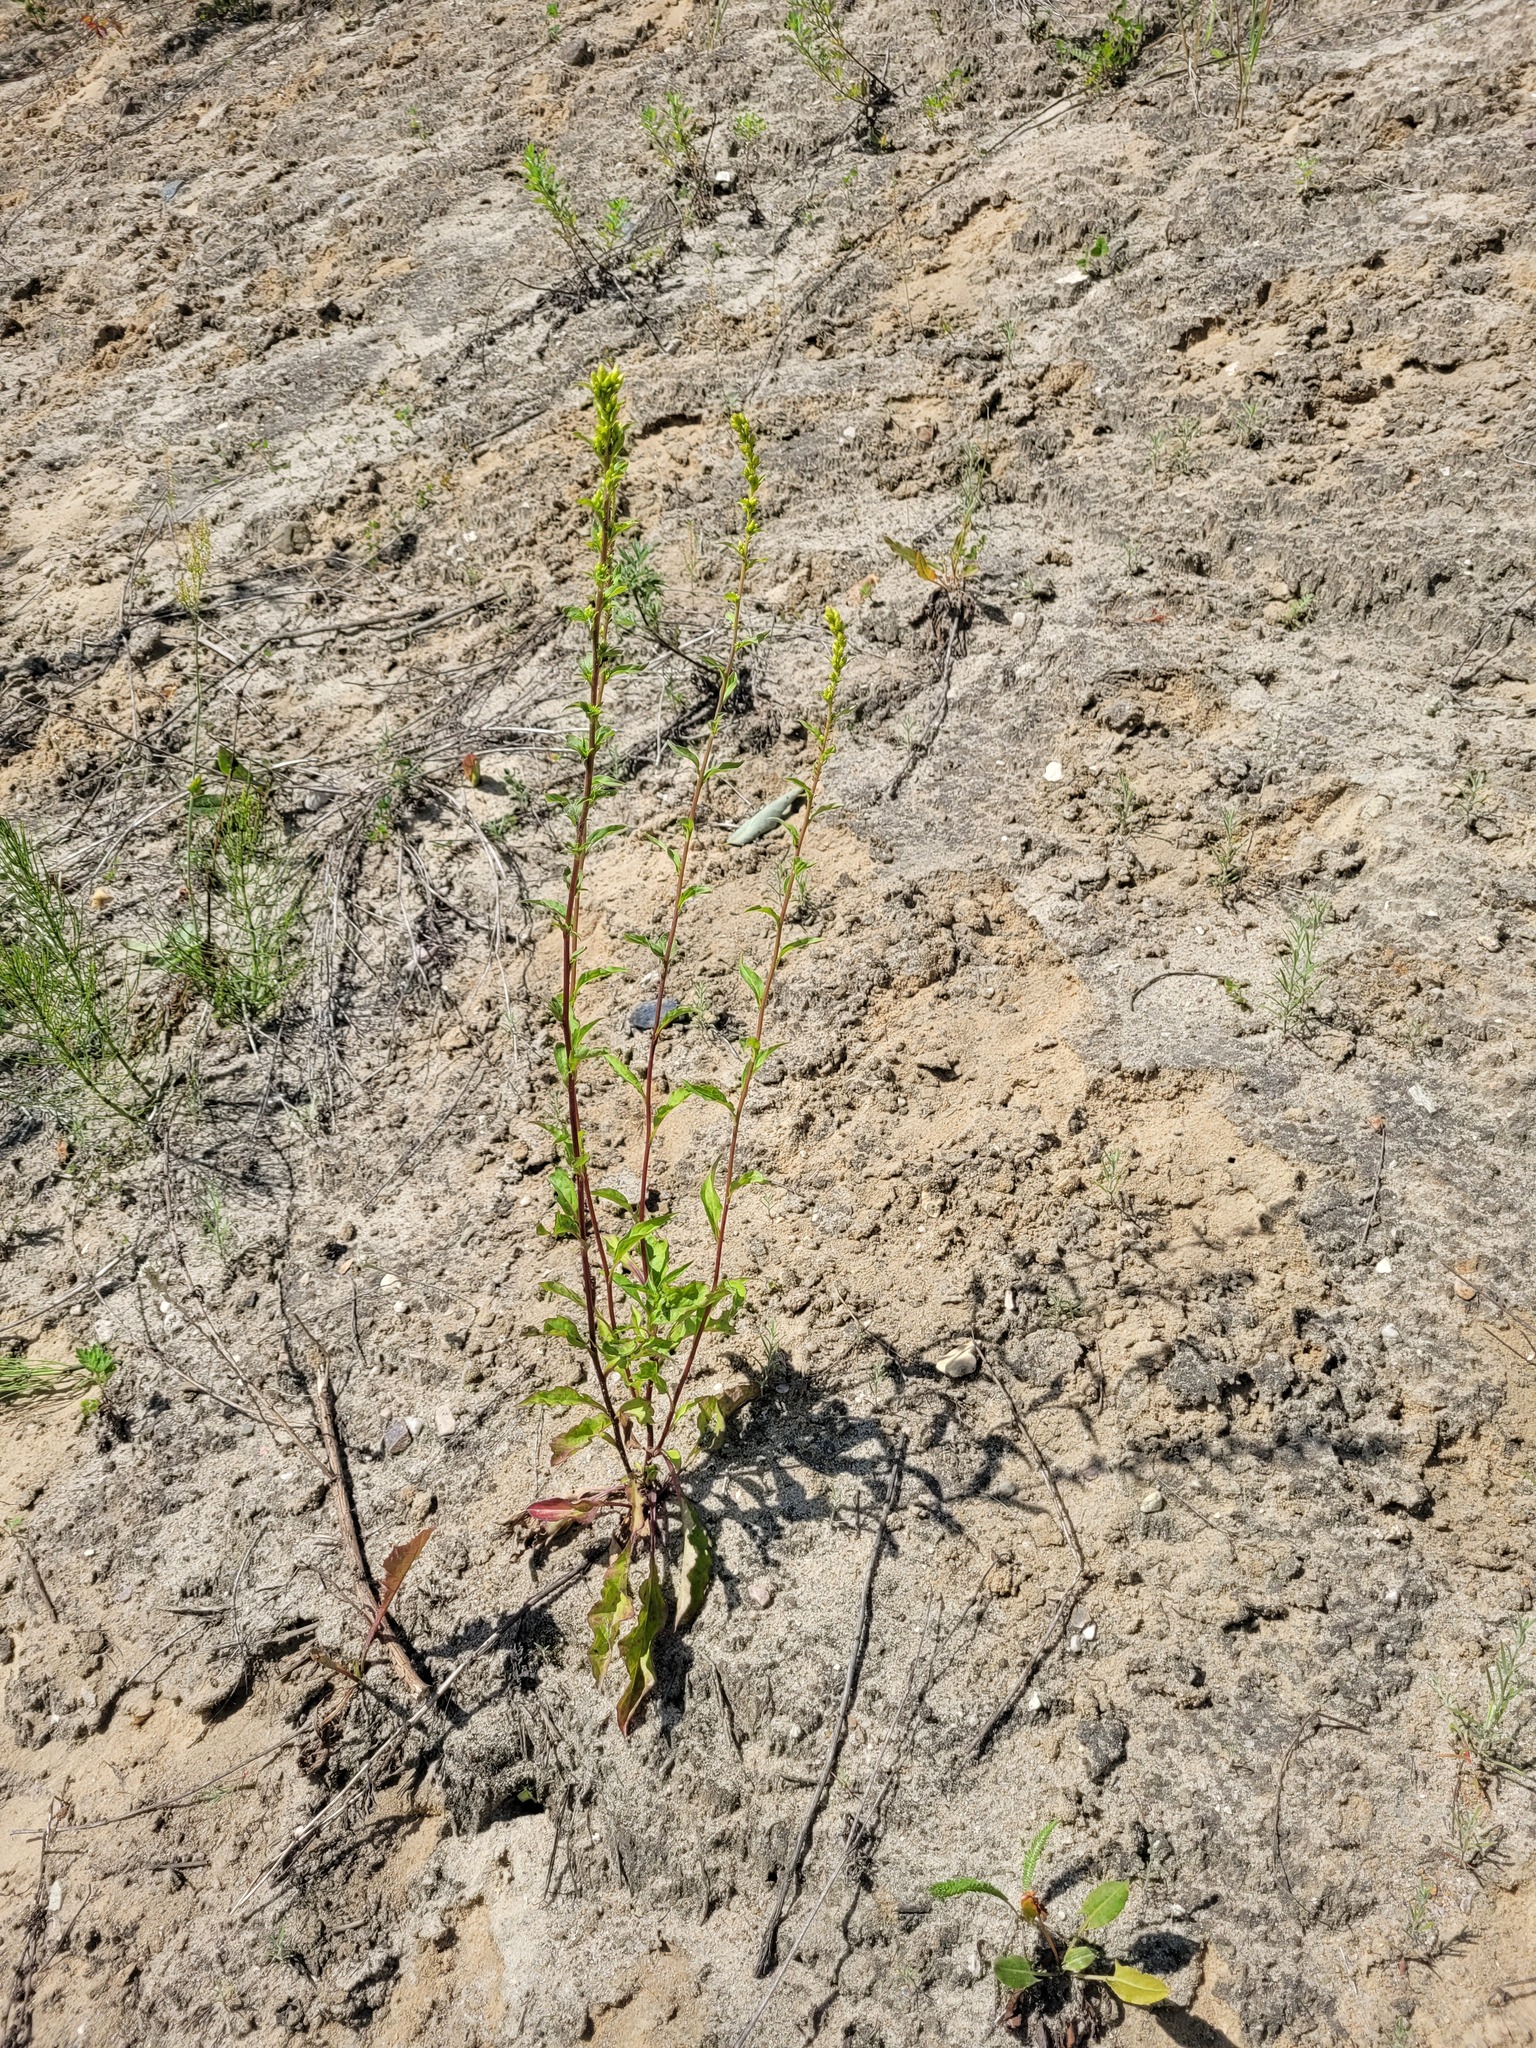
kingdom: Plantae
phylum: Tracheophyta
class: Magnoliopsida
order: Asterales
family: Asteraceae
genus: Solidago
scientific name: Solidago virgaurea
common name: Goldenrod
